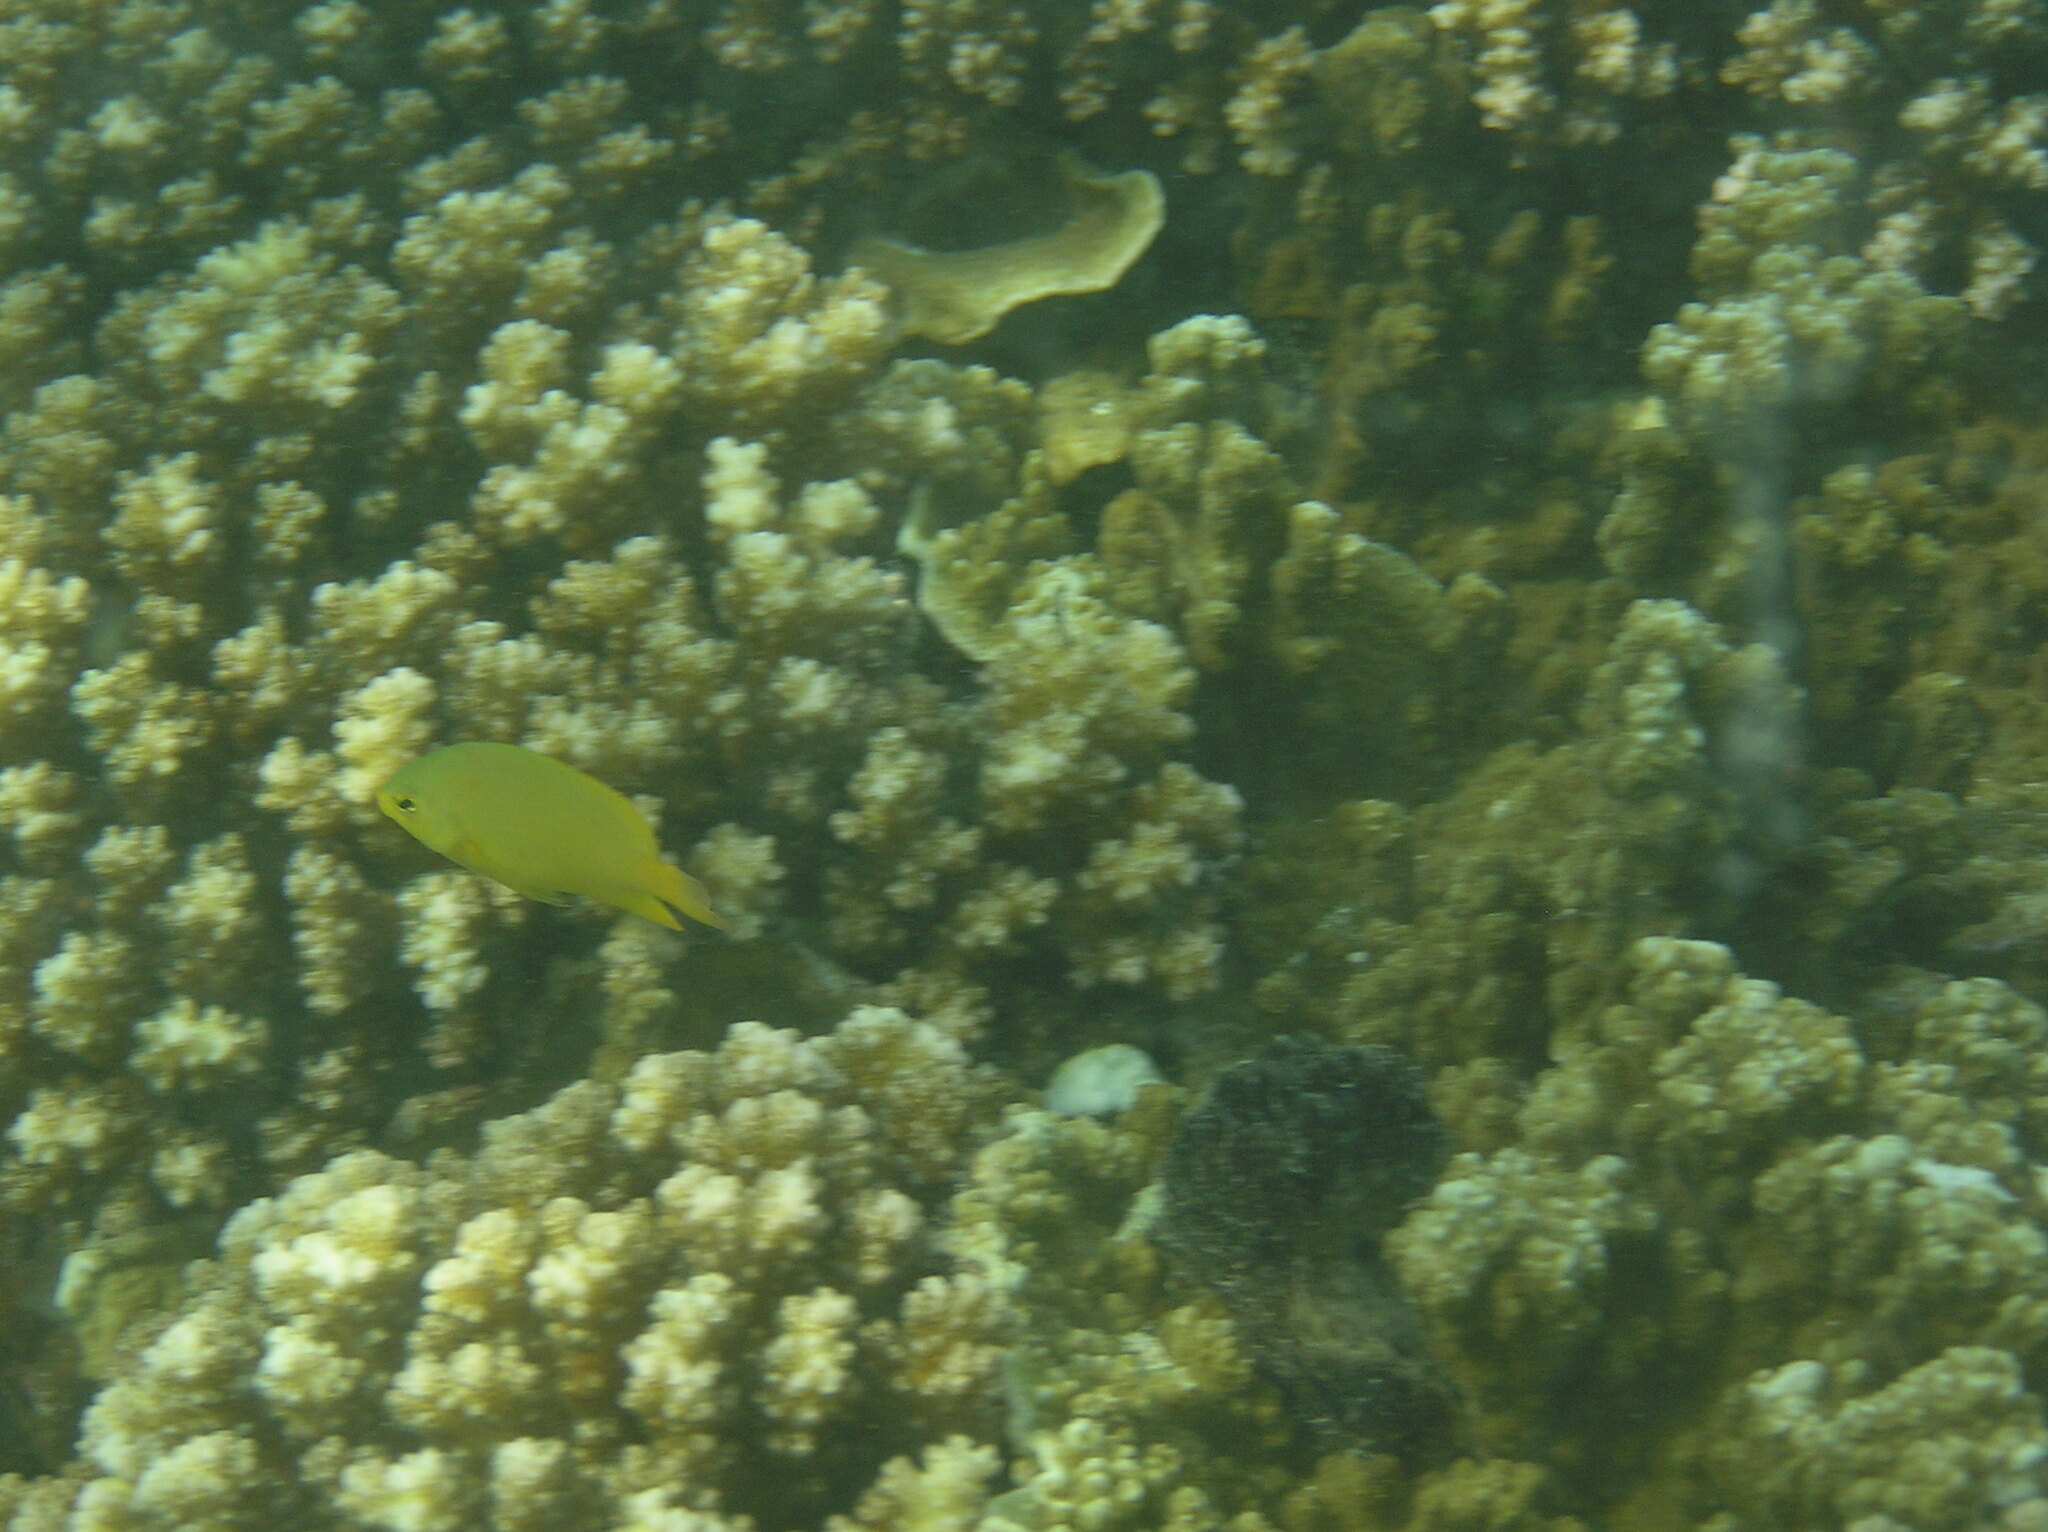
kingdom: Animalia
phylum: Chordata
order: Perciformes
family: Pomacentridae
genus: Pomacentrus
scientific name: Pomacentrus moluccensis
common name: Lemon damsel
